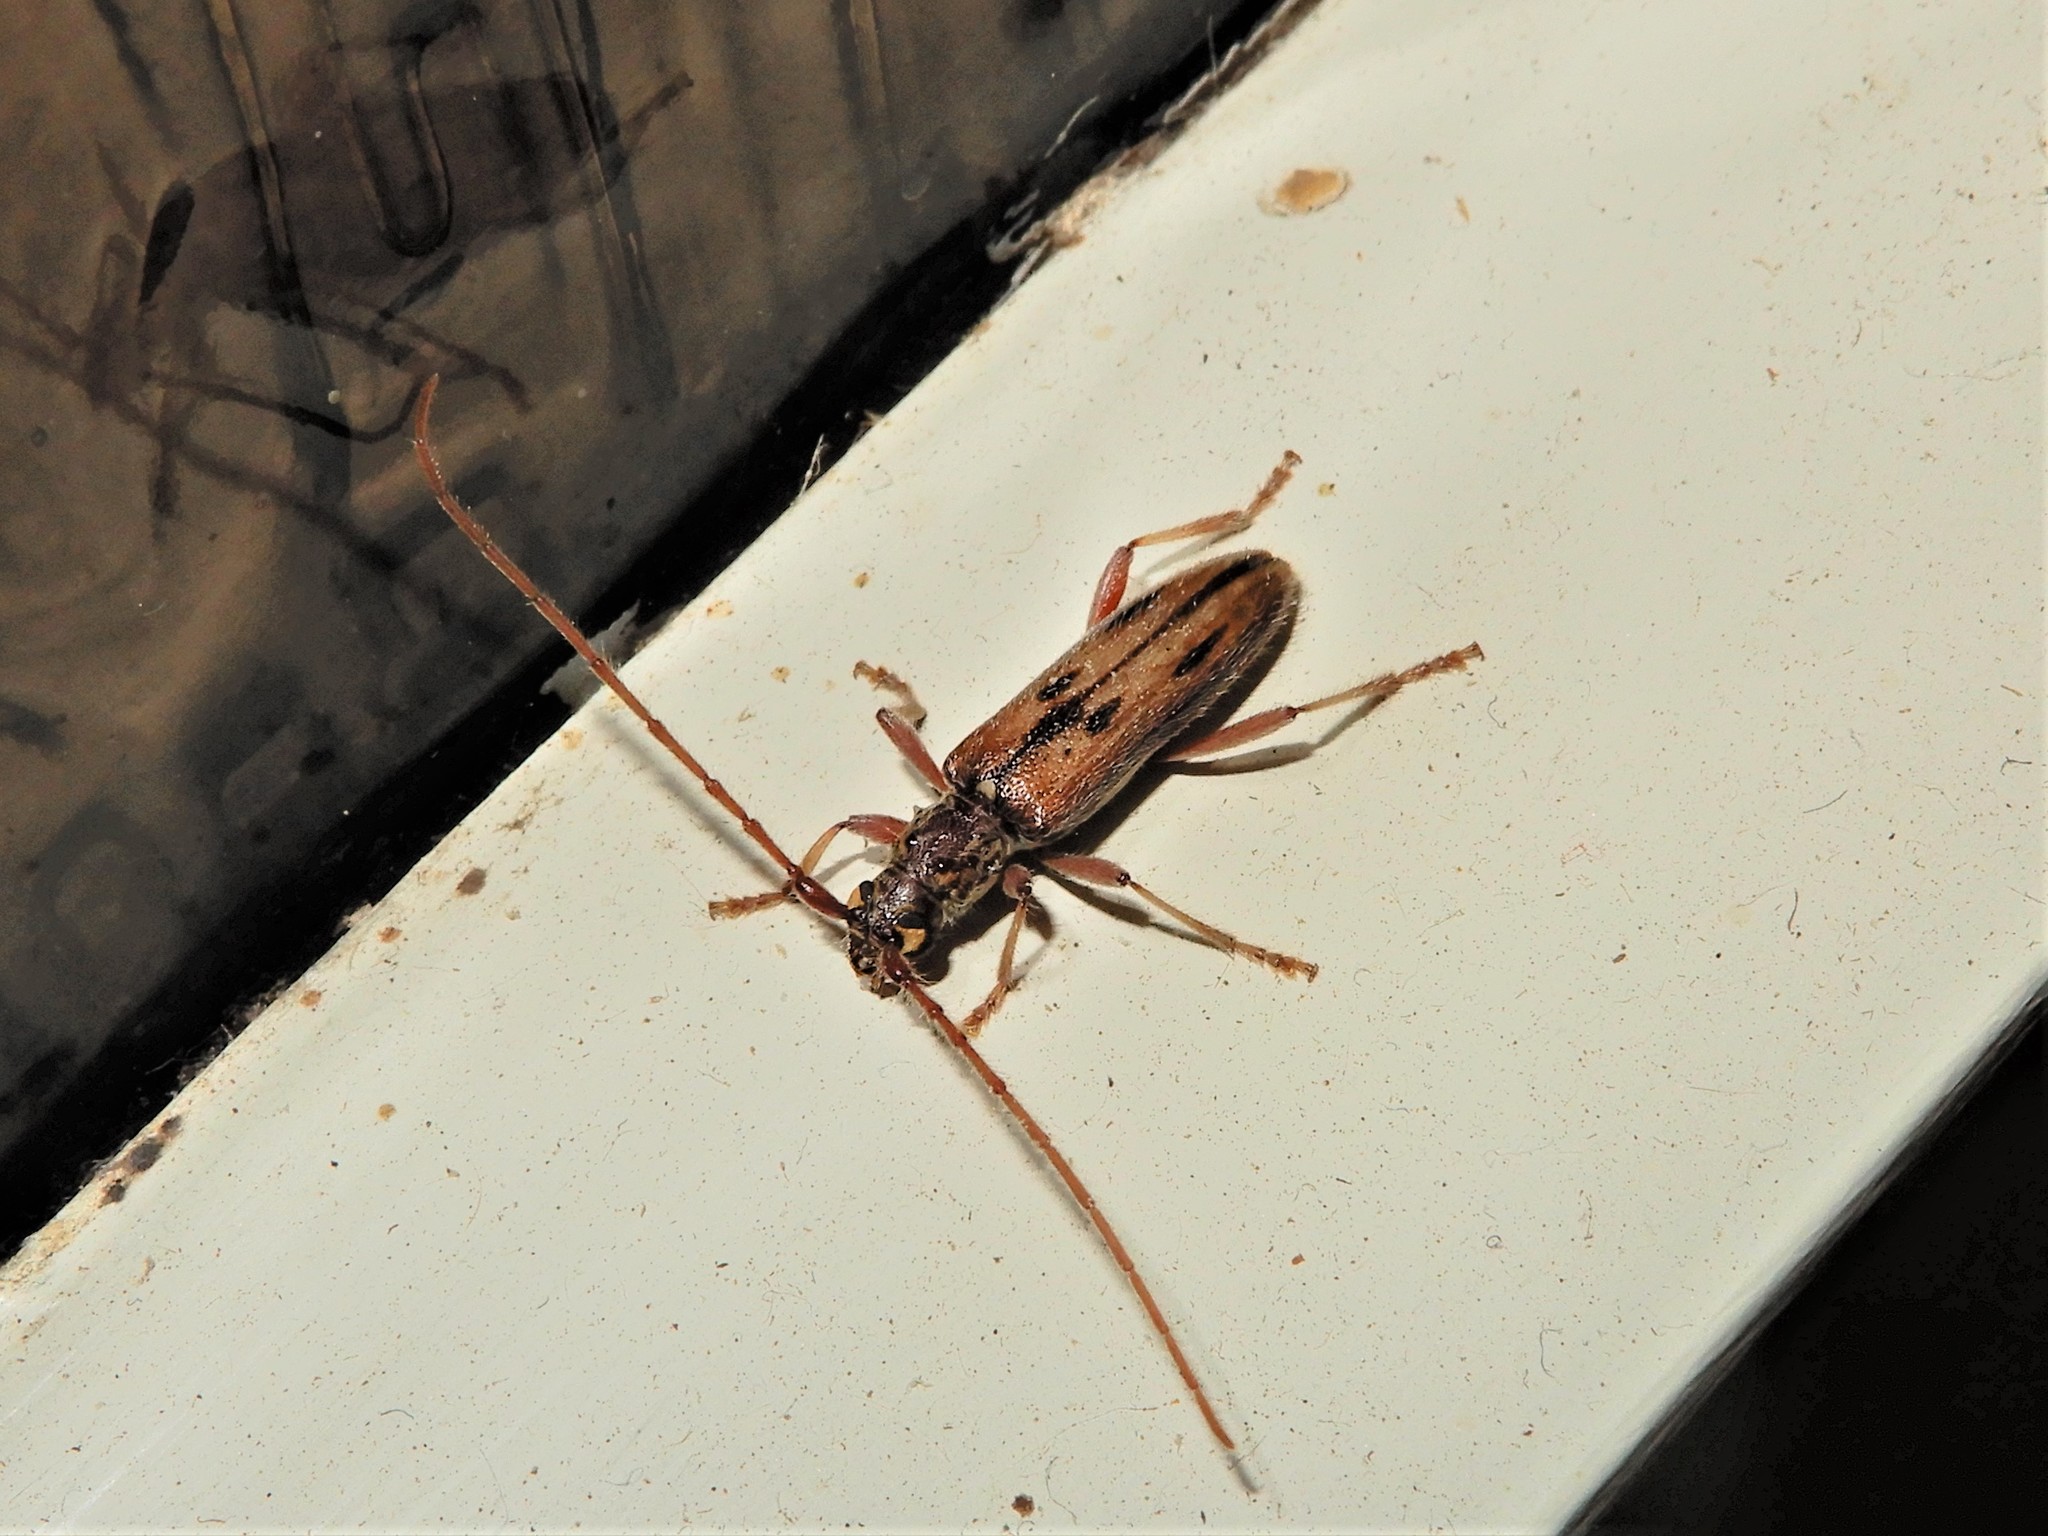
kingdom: Animalia
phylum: Arthropoda
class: Insecta
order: Coleoptera
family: Cerambycidae
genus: Didymocantha
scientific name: Didymocantha sublineata
